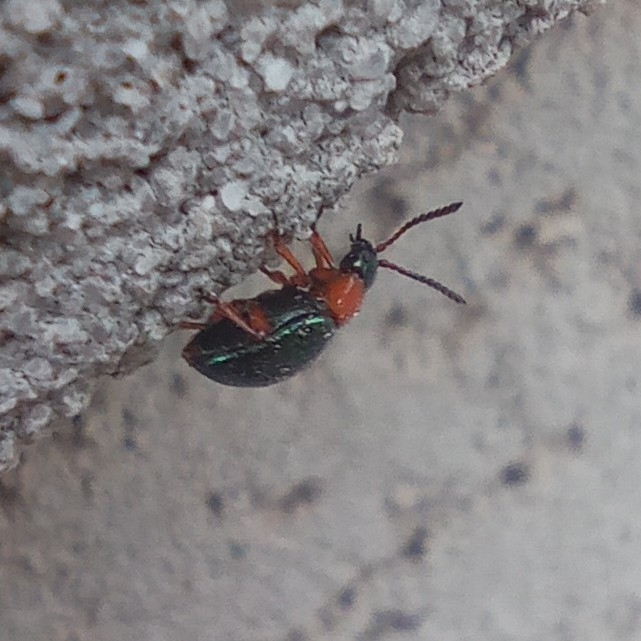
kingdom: Animalia
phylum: Arthropoda
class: Insecta
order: Coleoptera
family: Chrysomelidae
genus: Gastrophysa
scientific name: Gastrophysa polygoni
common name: Knotweed leaf beetle
